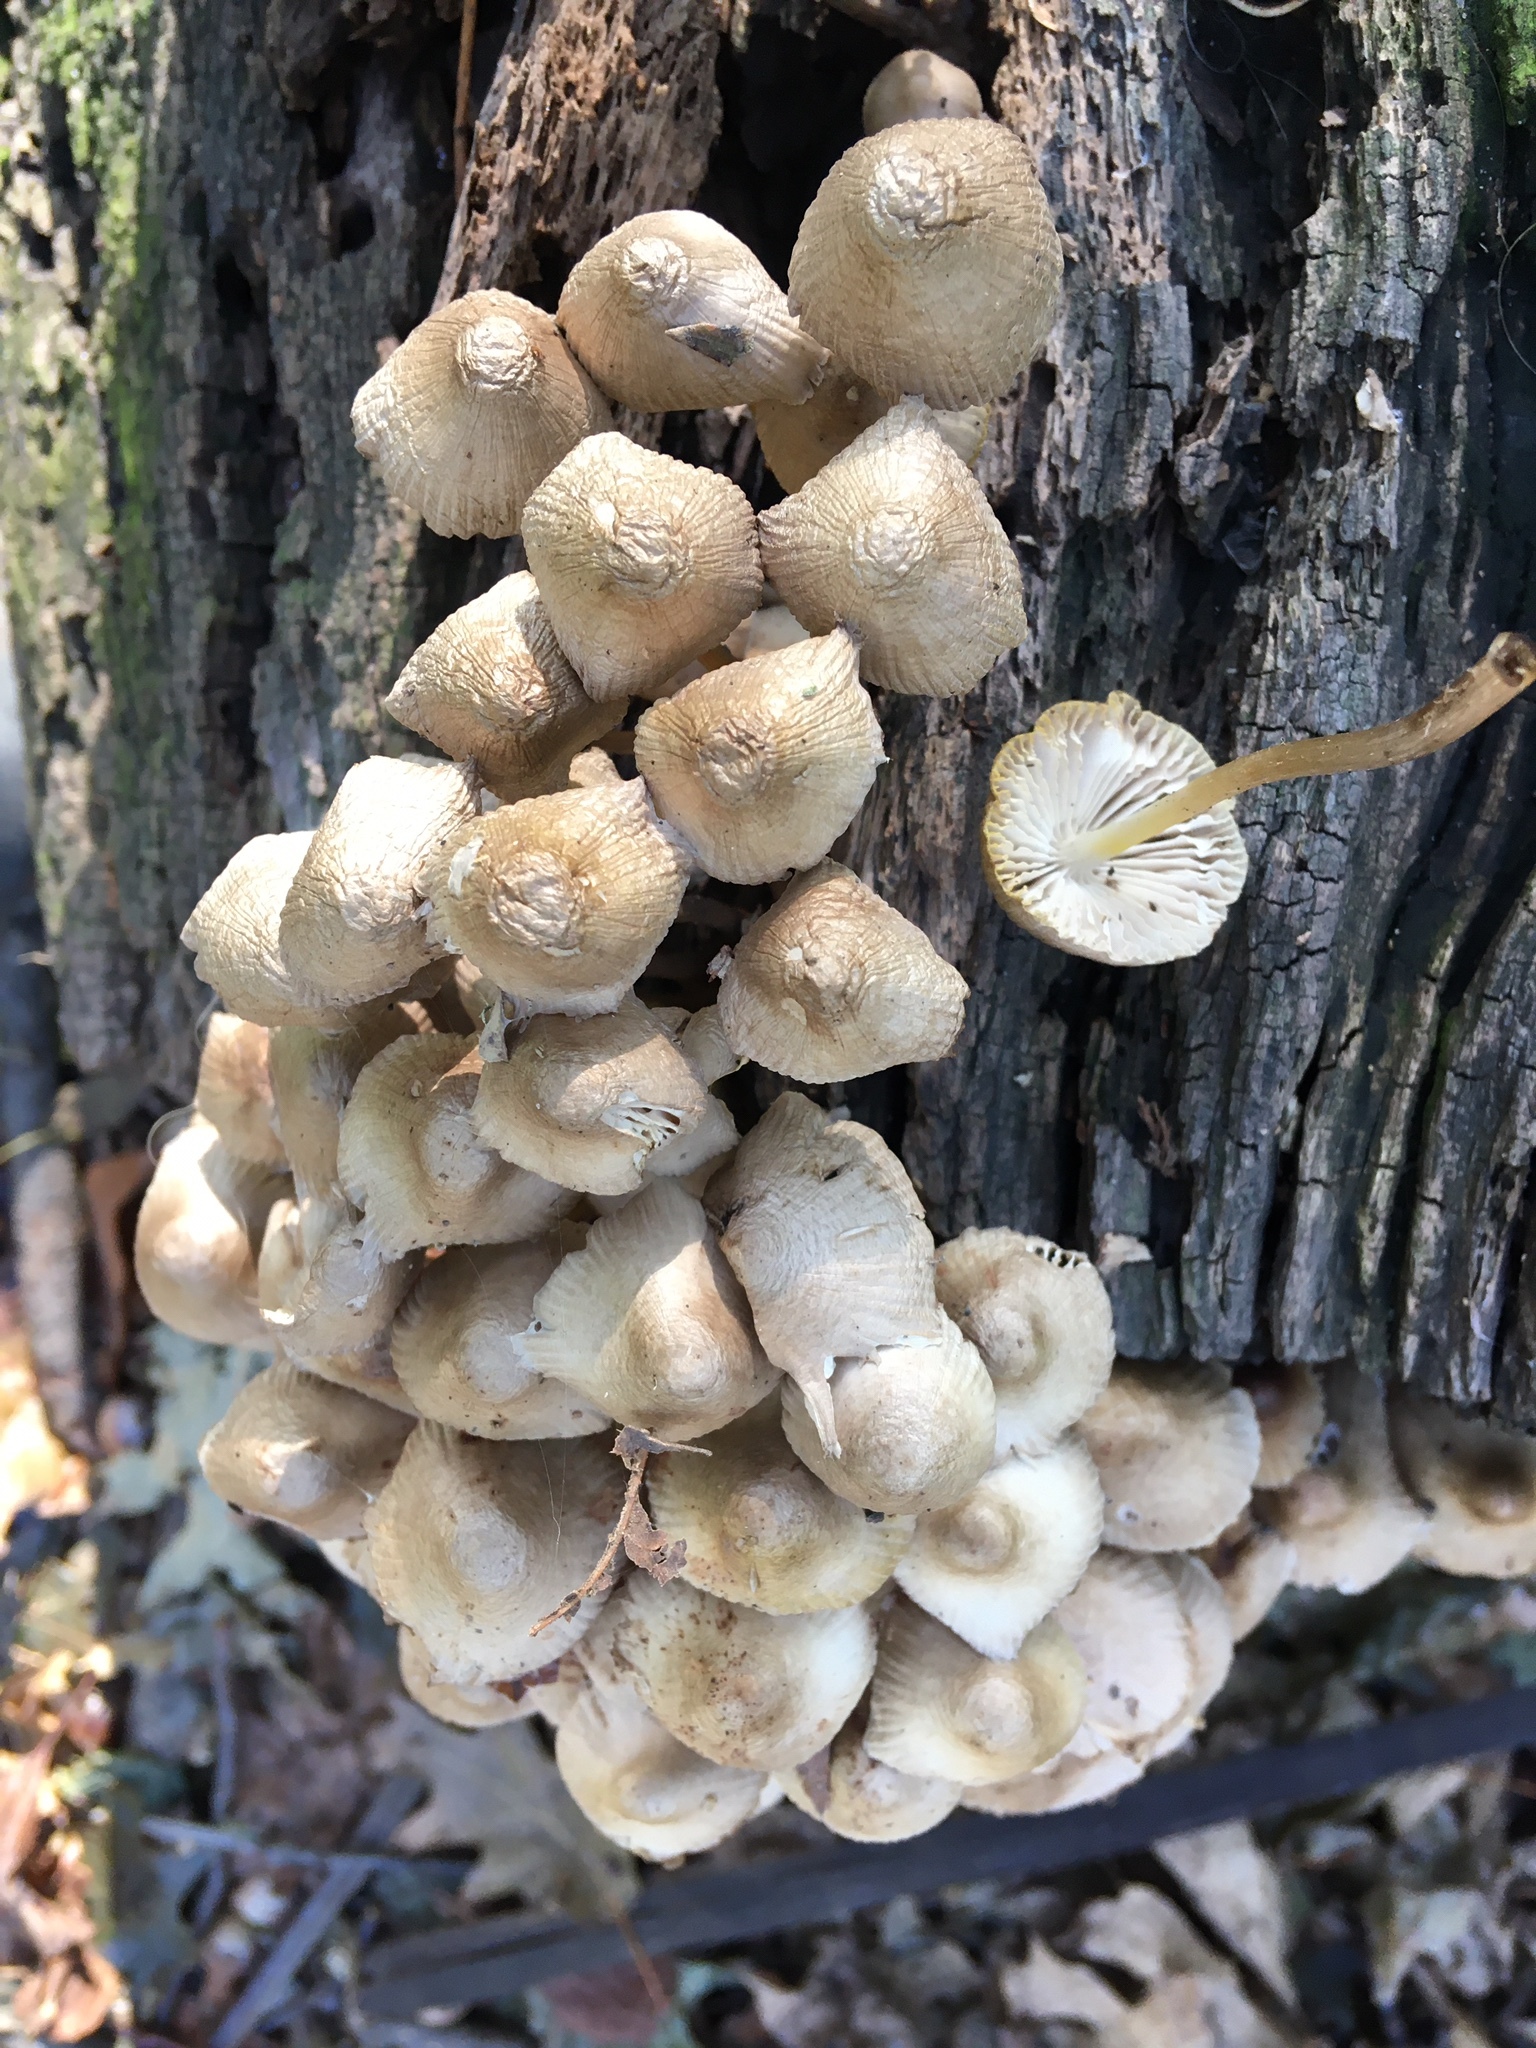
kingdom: Fungi
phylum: Basidiomycota
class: Agaricomycetes
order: Agaricales
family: Mycenaceae
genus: Mycena
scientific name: Mycena galericulata
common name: Bonnet mycena
